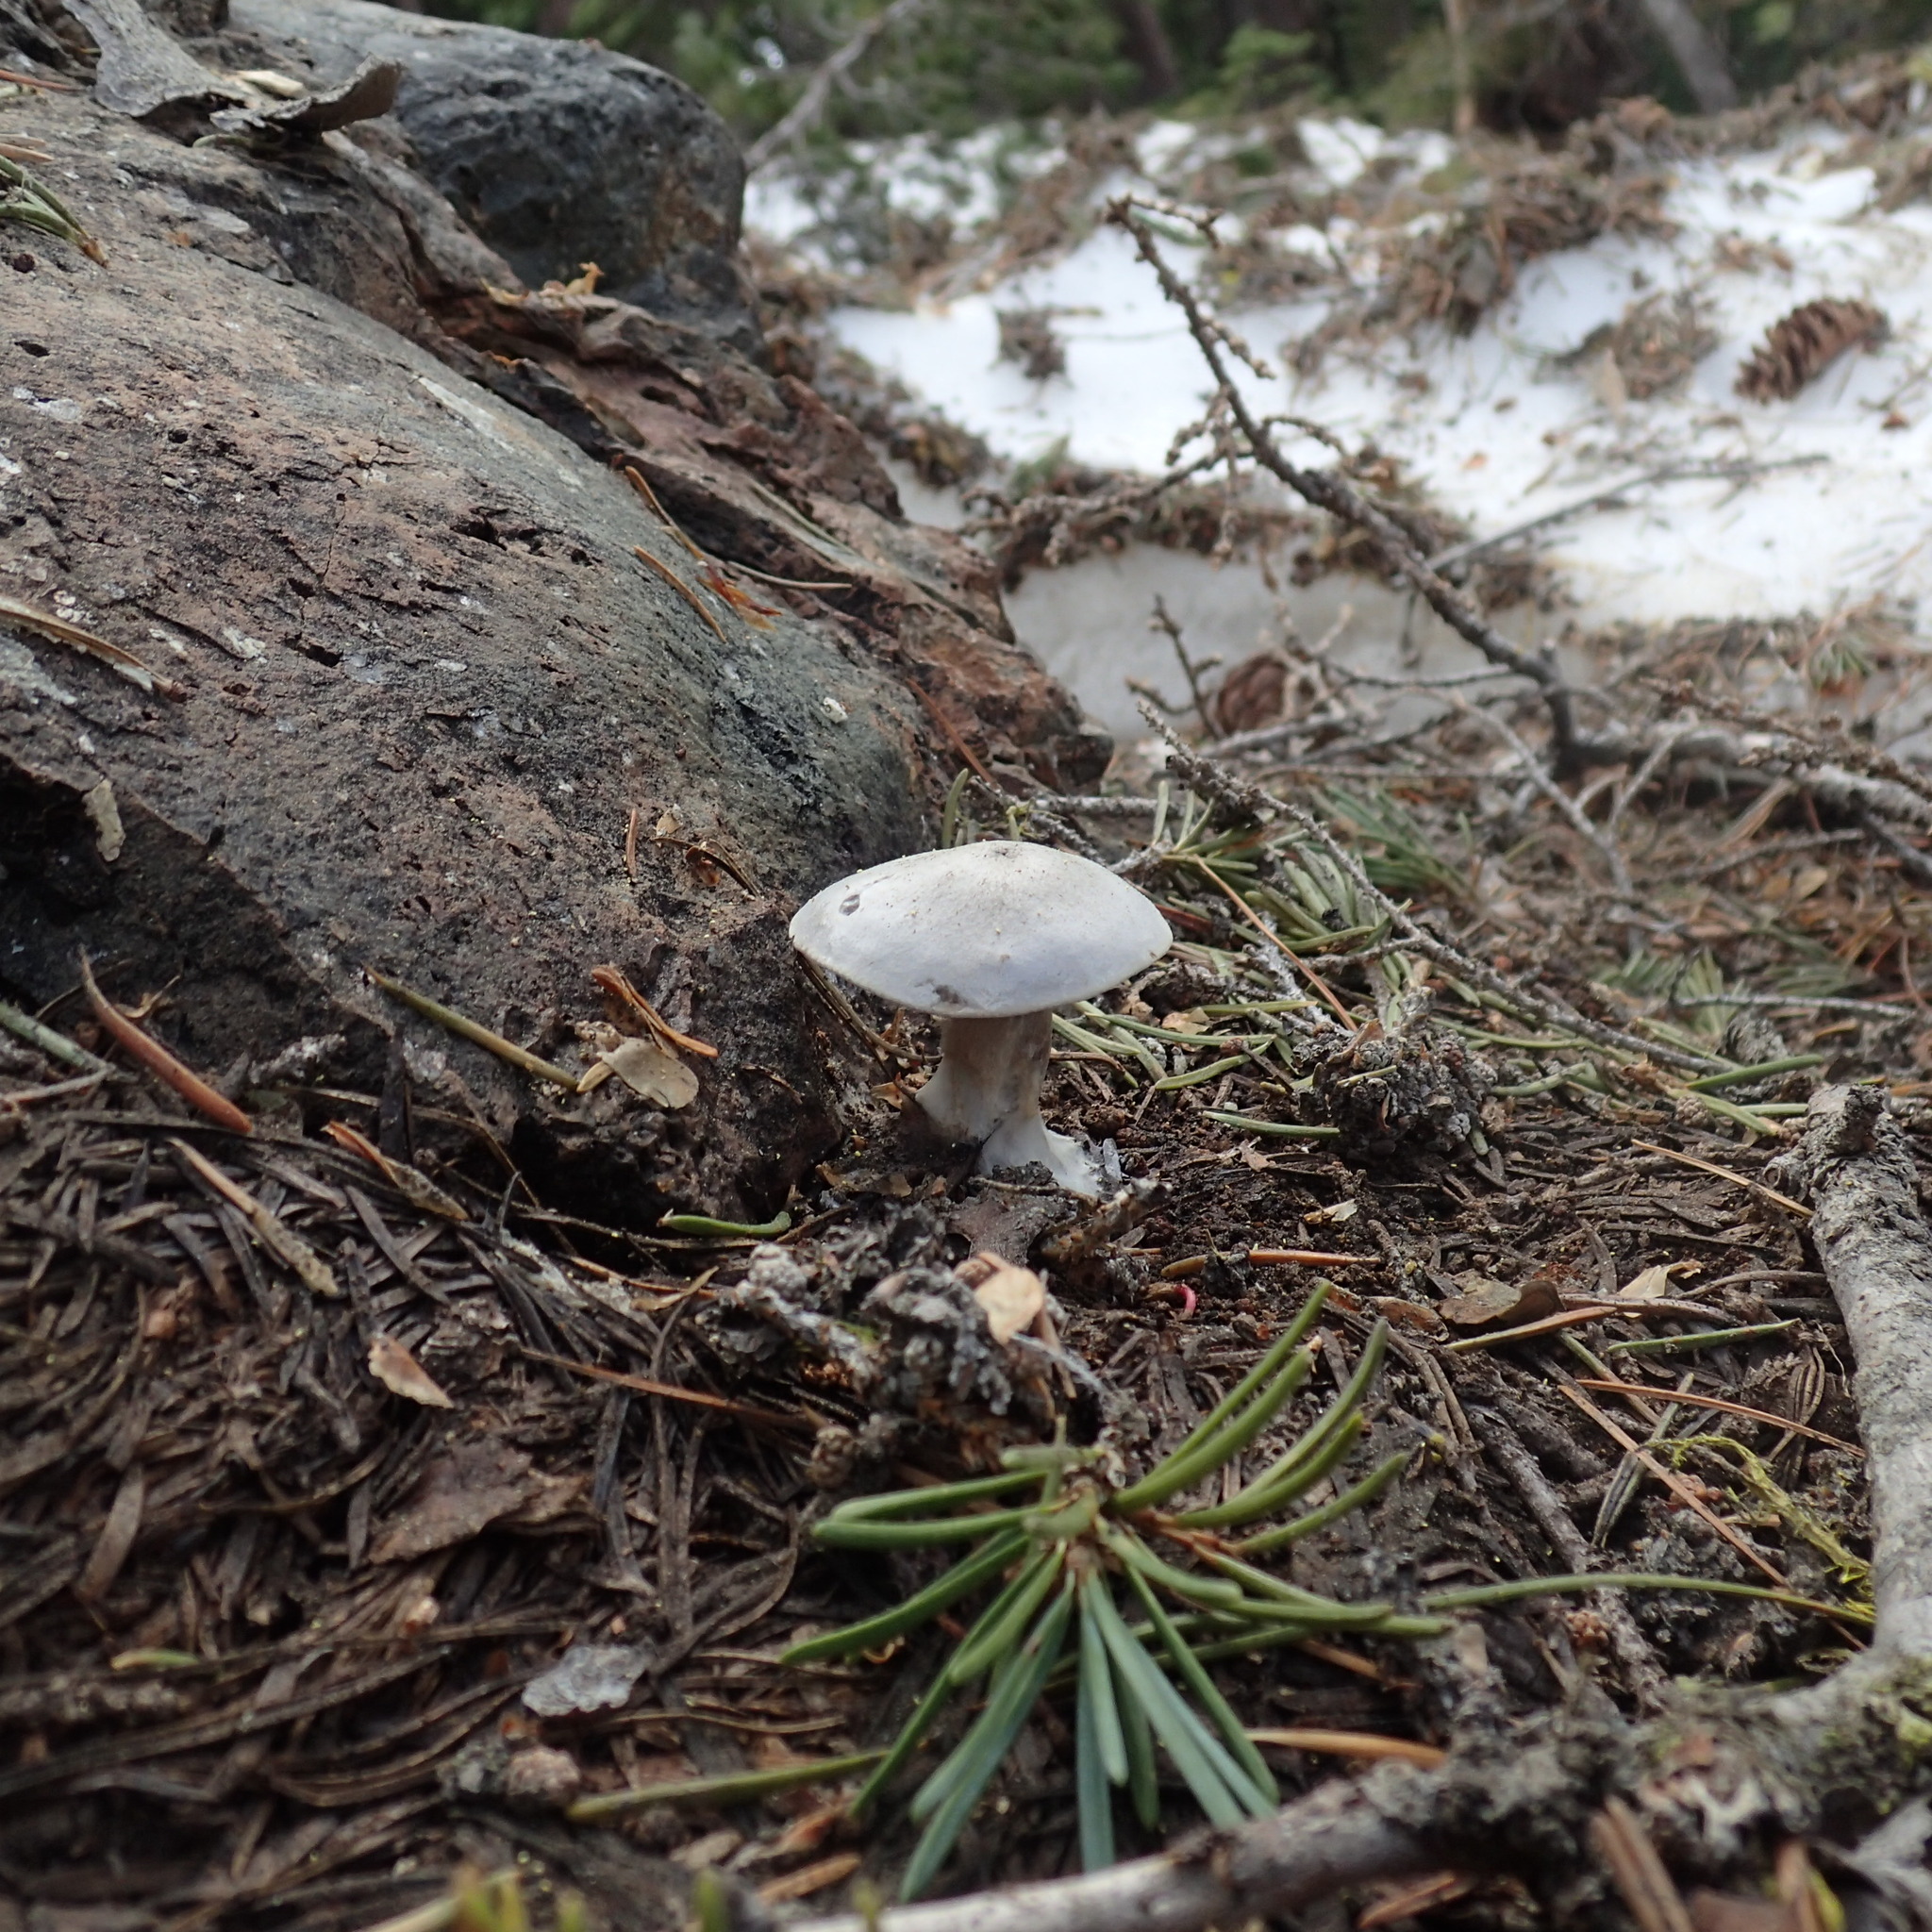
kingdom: Fungi
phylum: Basidiomycota
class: Agaricomycetes
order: Agaricales
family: Tricholomataceae
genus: Clitocybe
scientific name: Clitocybe glacialis
